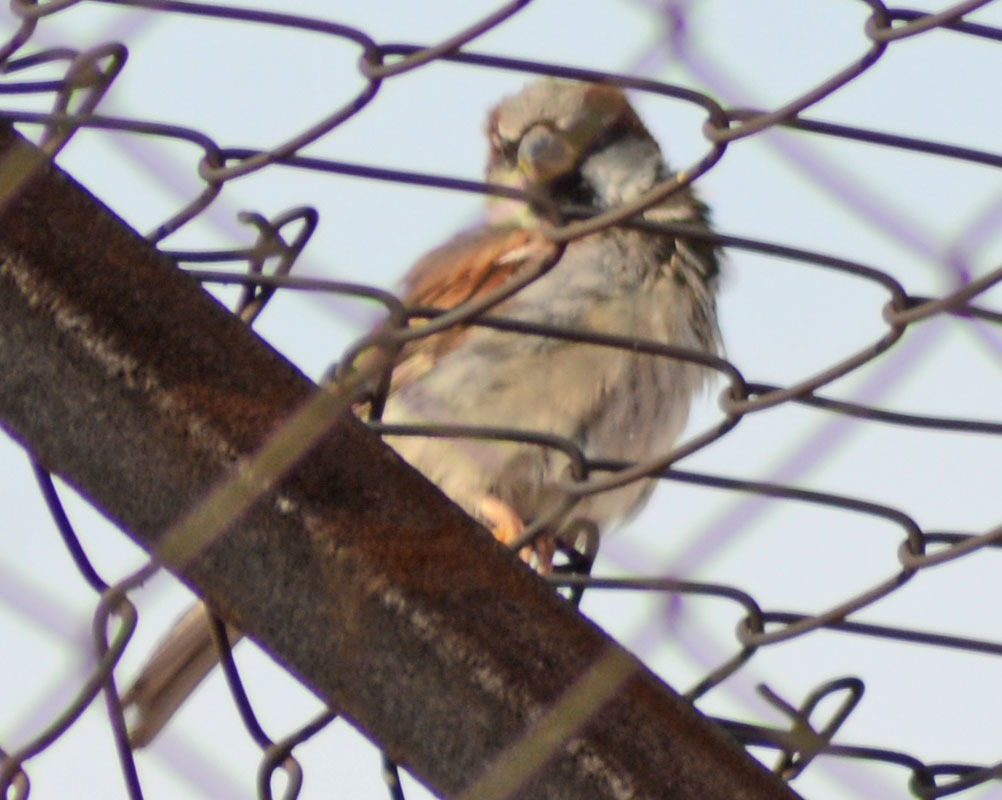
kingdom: Animalia
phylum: Chordata
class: Aves
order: Passeriformes
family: Passeridae
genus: Passer
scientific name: Passer domesticus
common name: House sparrow
